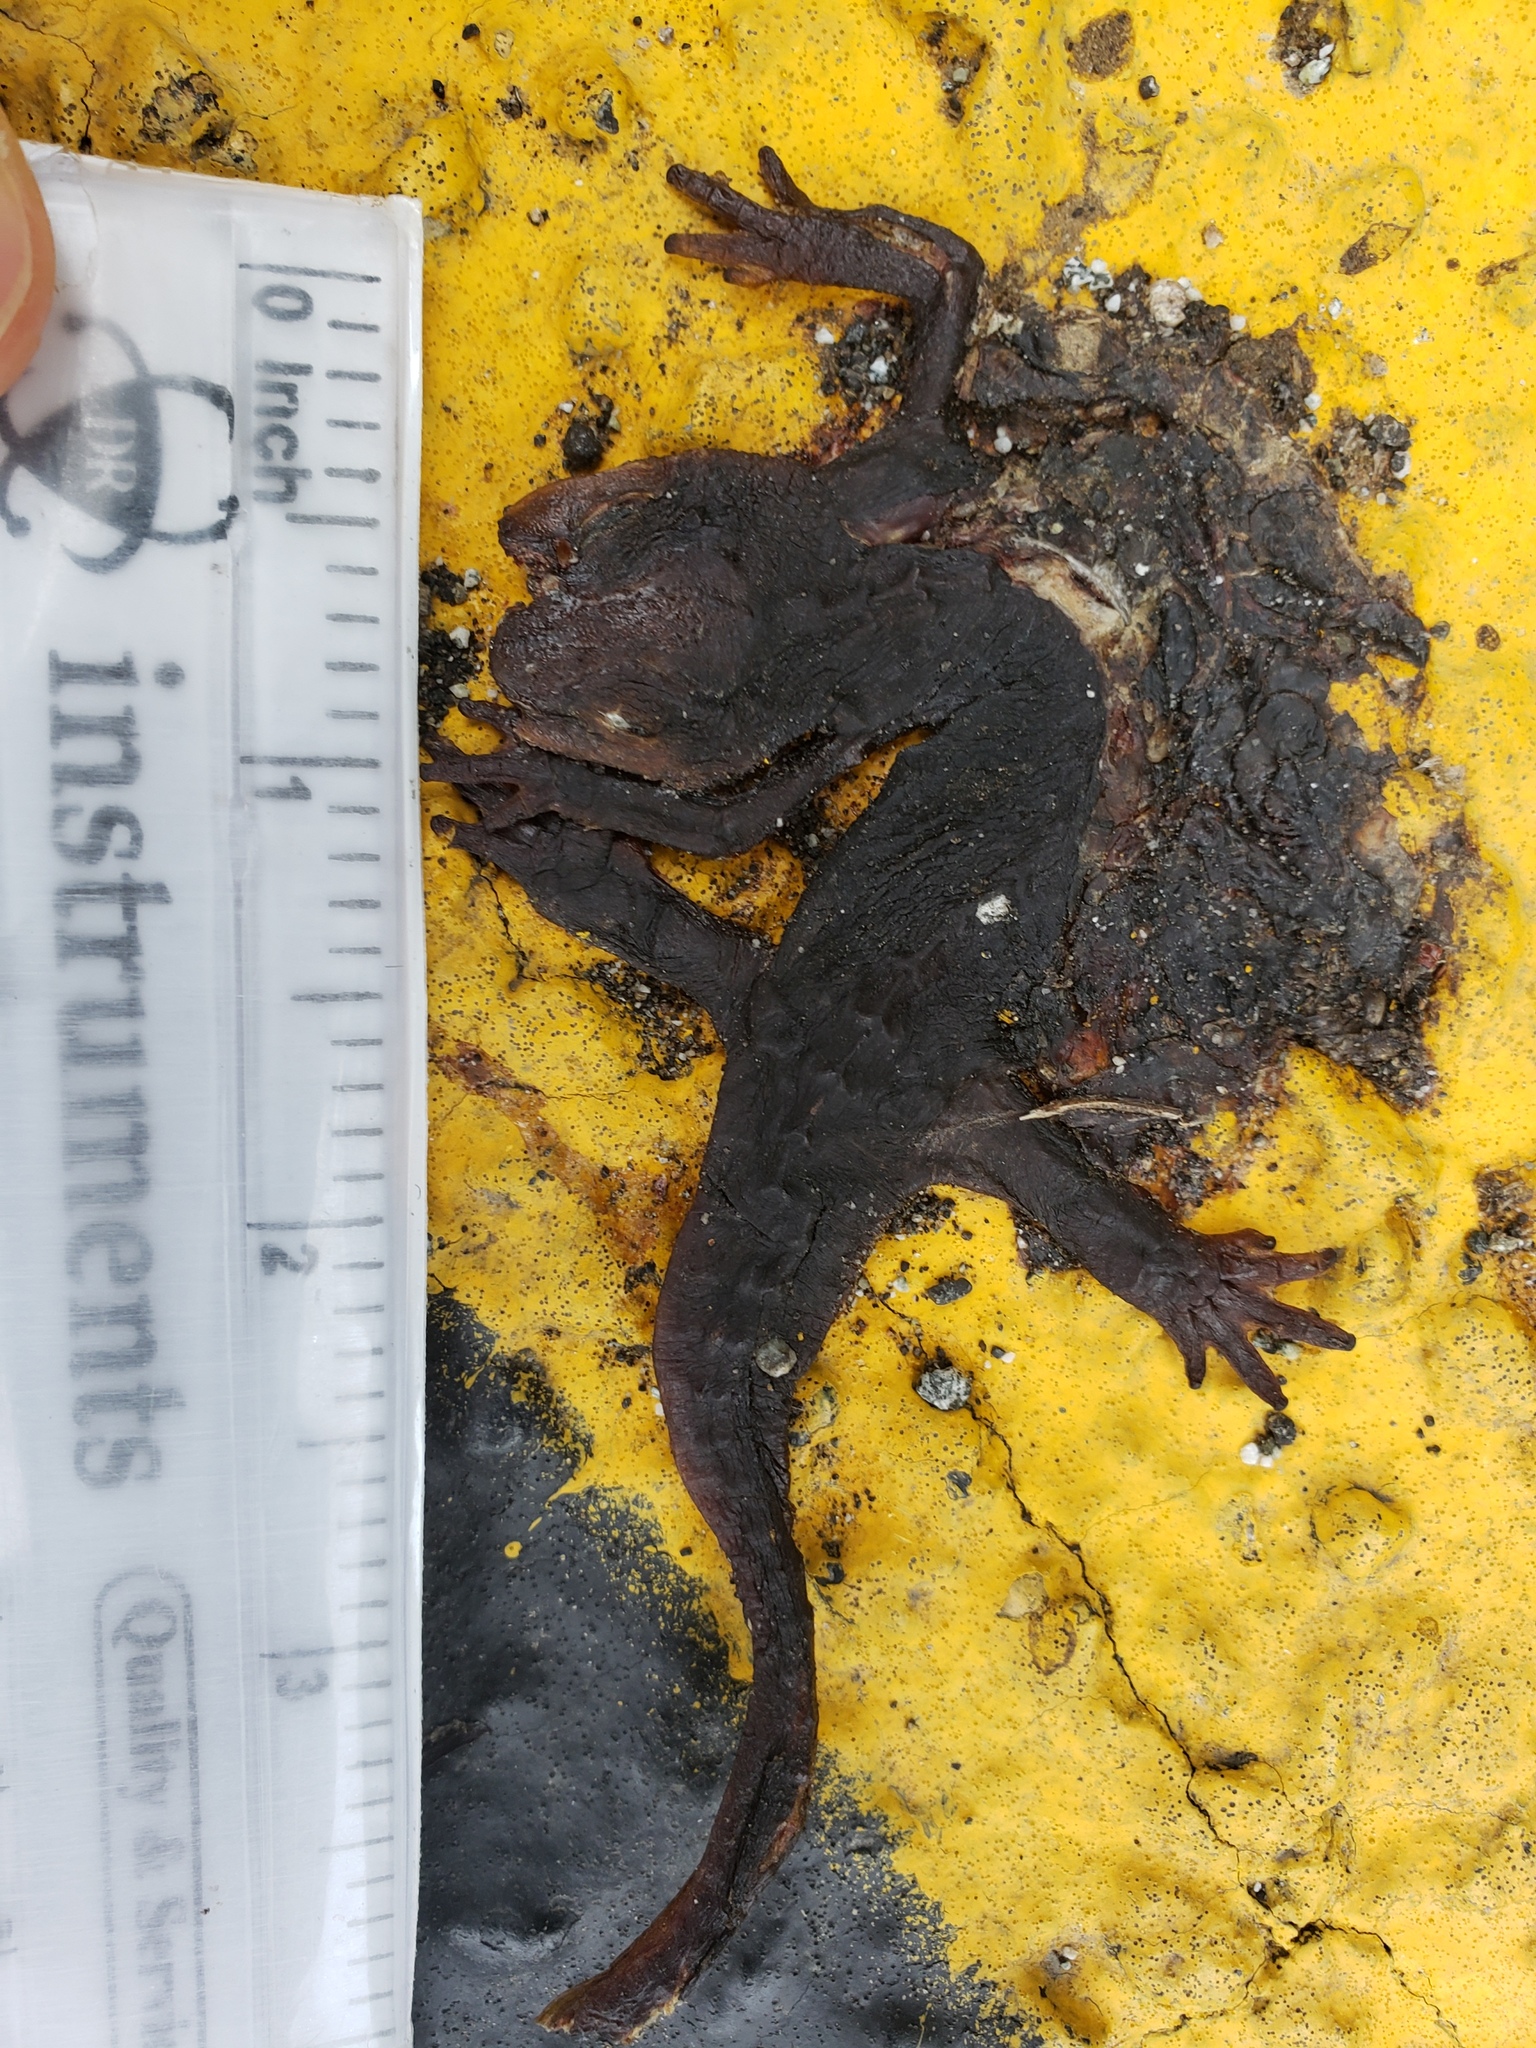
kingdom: Animalia
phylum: Chordata
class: Amphibia
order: Caudata
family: Salamandridae
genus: Taricha
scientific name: Taricha
